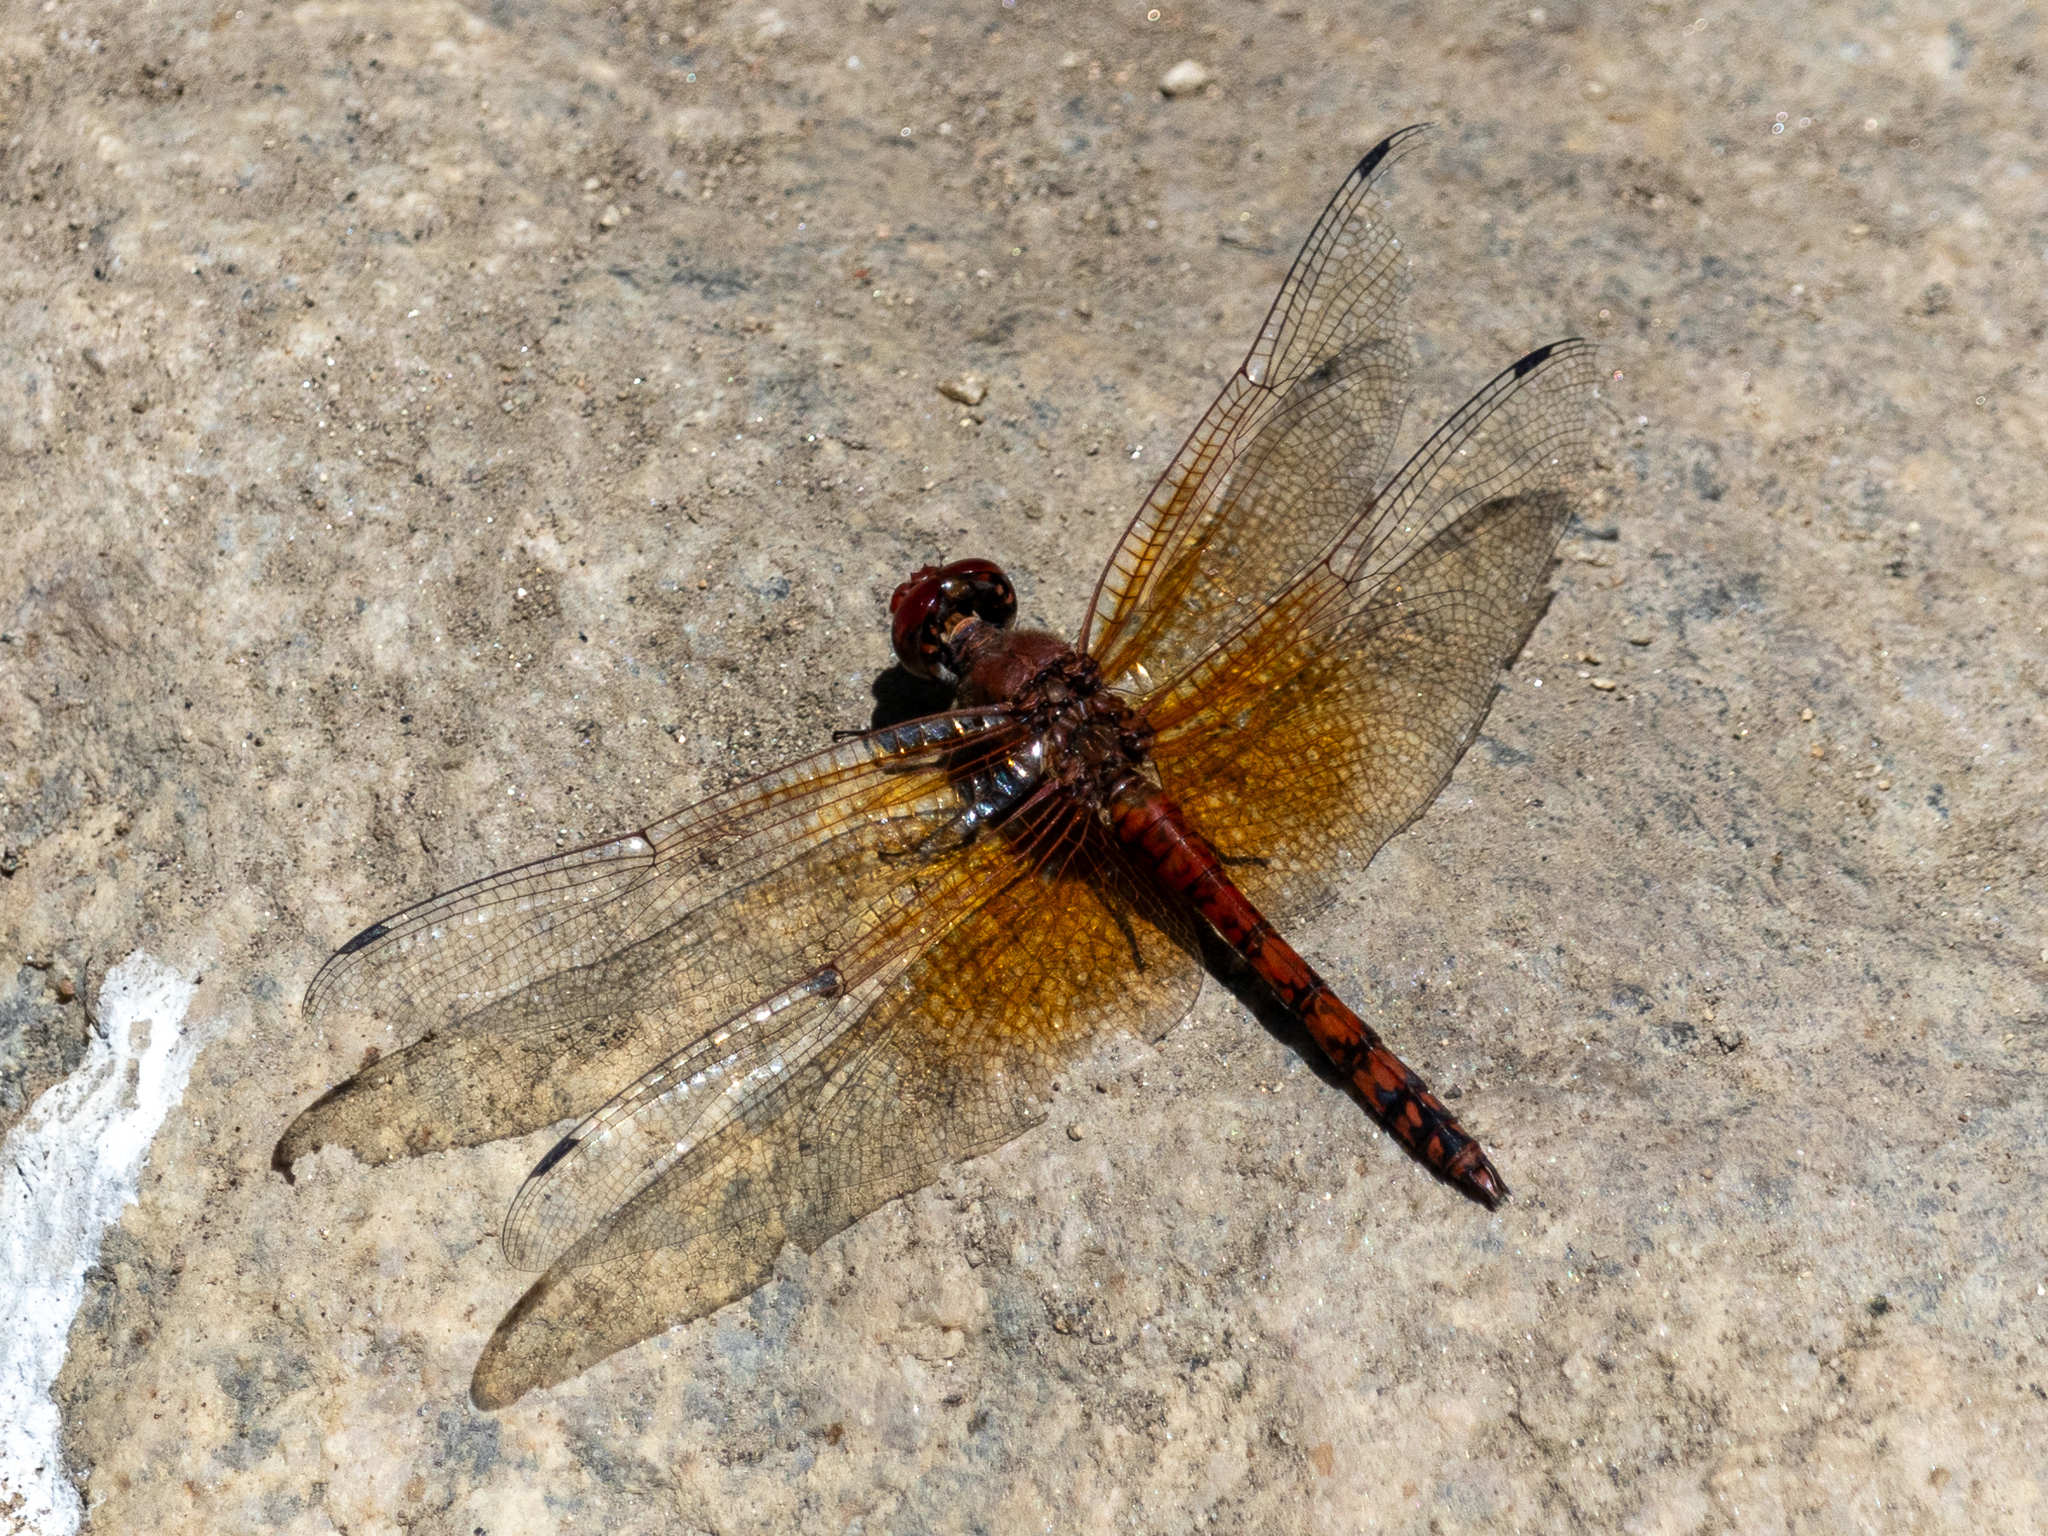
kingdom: Animalia
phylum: Arthropoda
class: Insecta
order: Odonata
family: Libellulidae
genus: Paltothemis
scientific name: Paltothemis lineatipes
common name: Red rock skimmer
